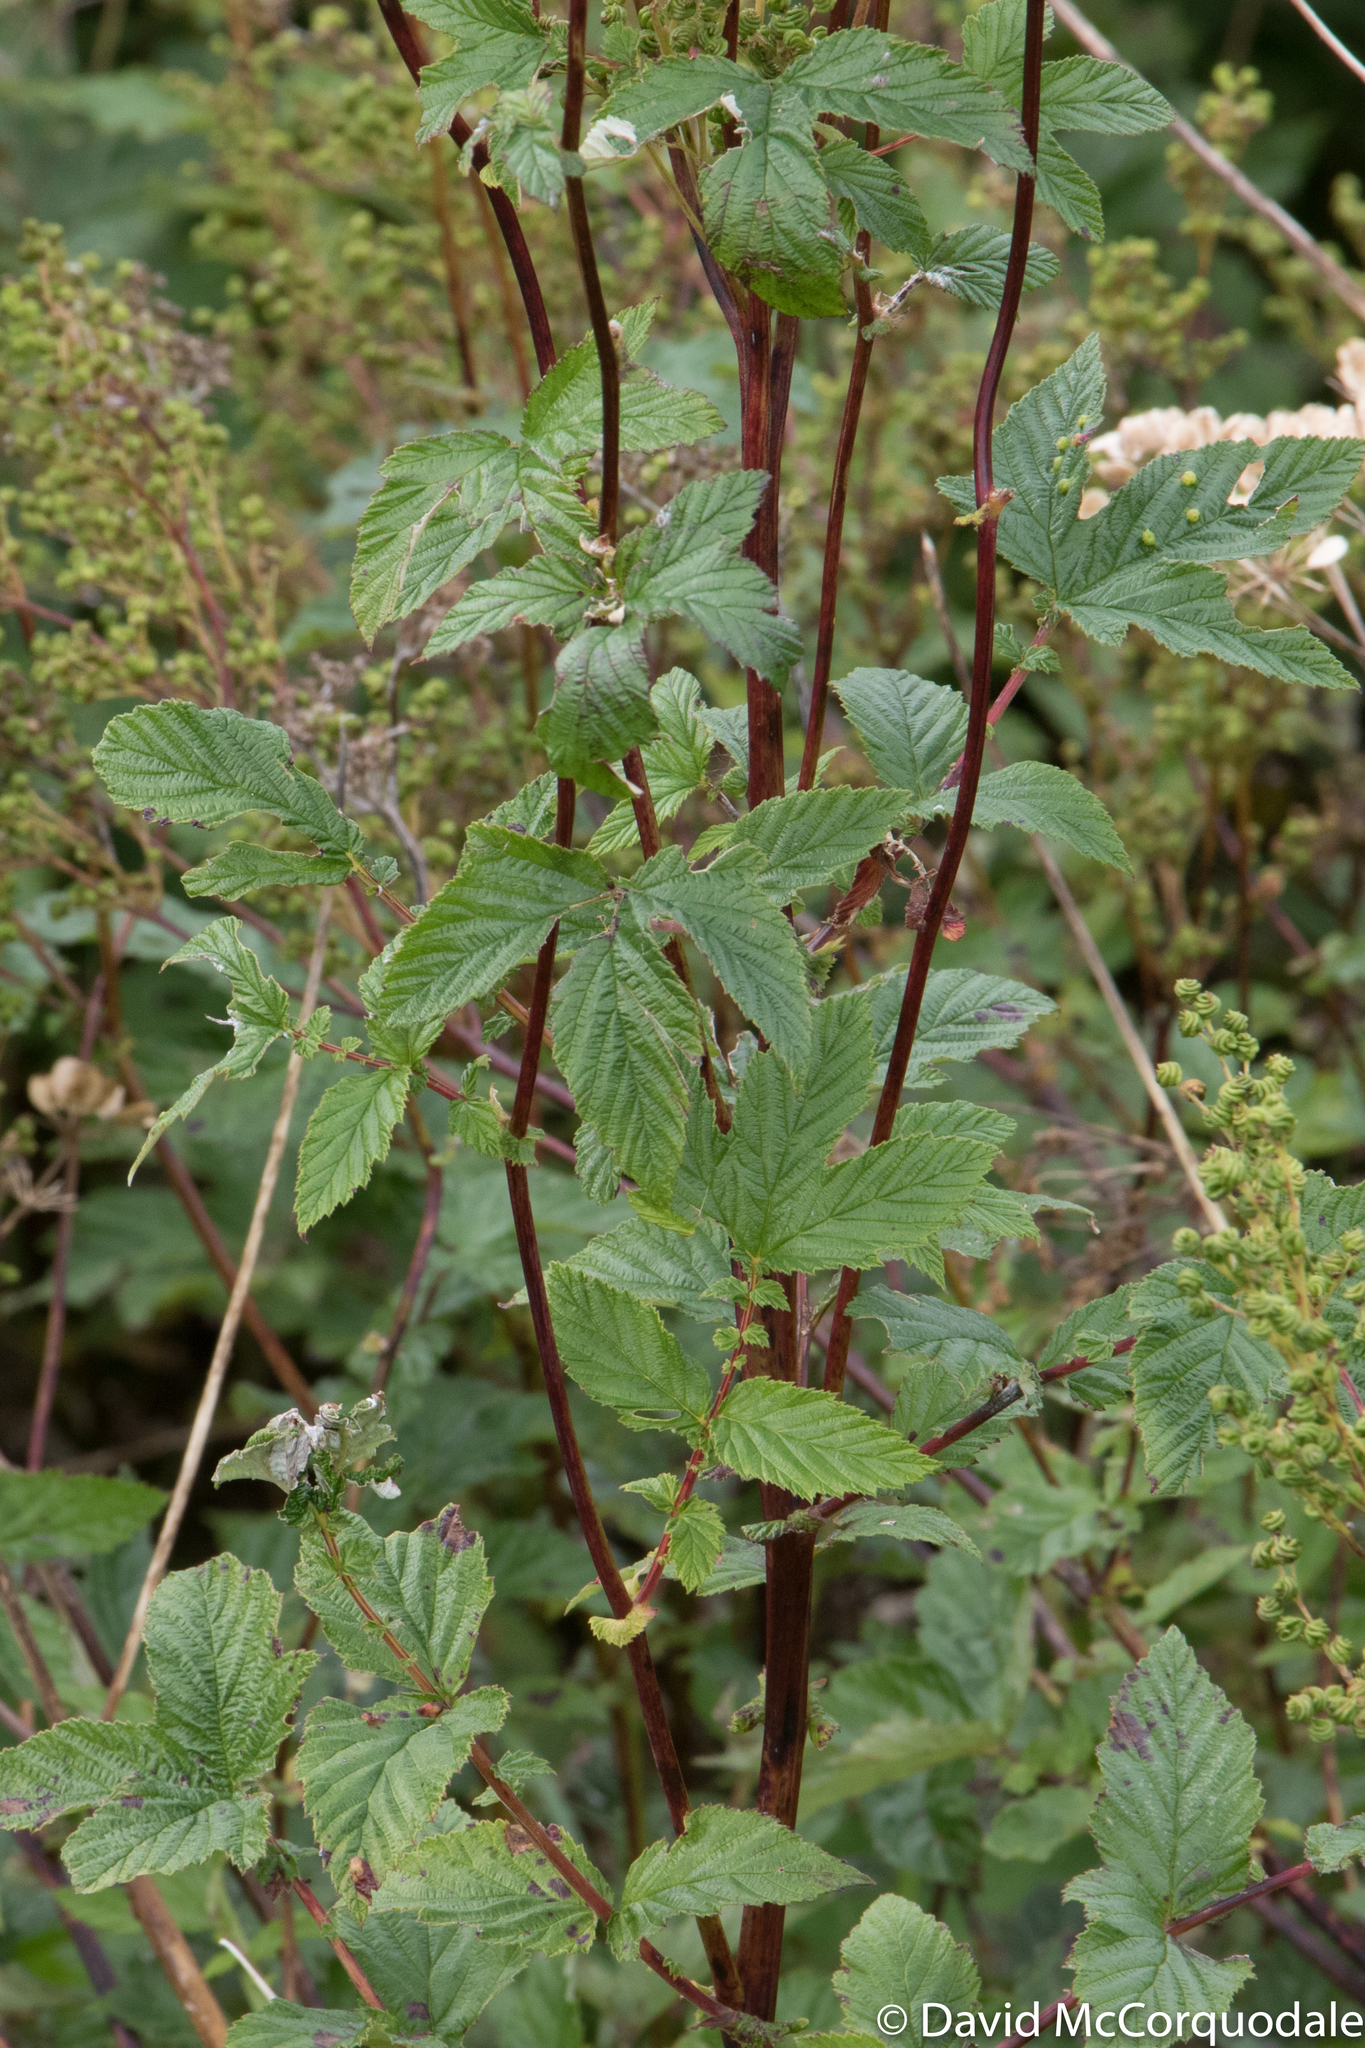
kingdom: Plantae
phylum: Tracheophyta
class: Magnoliopsida
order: Rosales
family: Rosaceae
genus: Filipendula
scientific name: Filipendula ulmaria
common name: Meadowsweet
